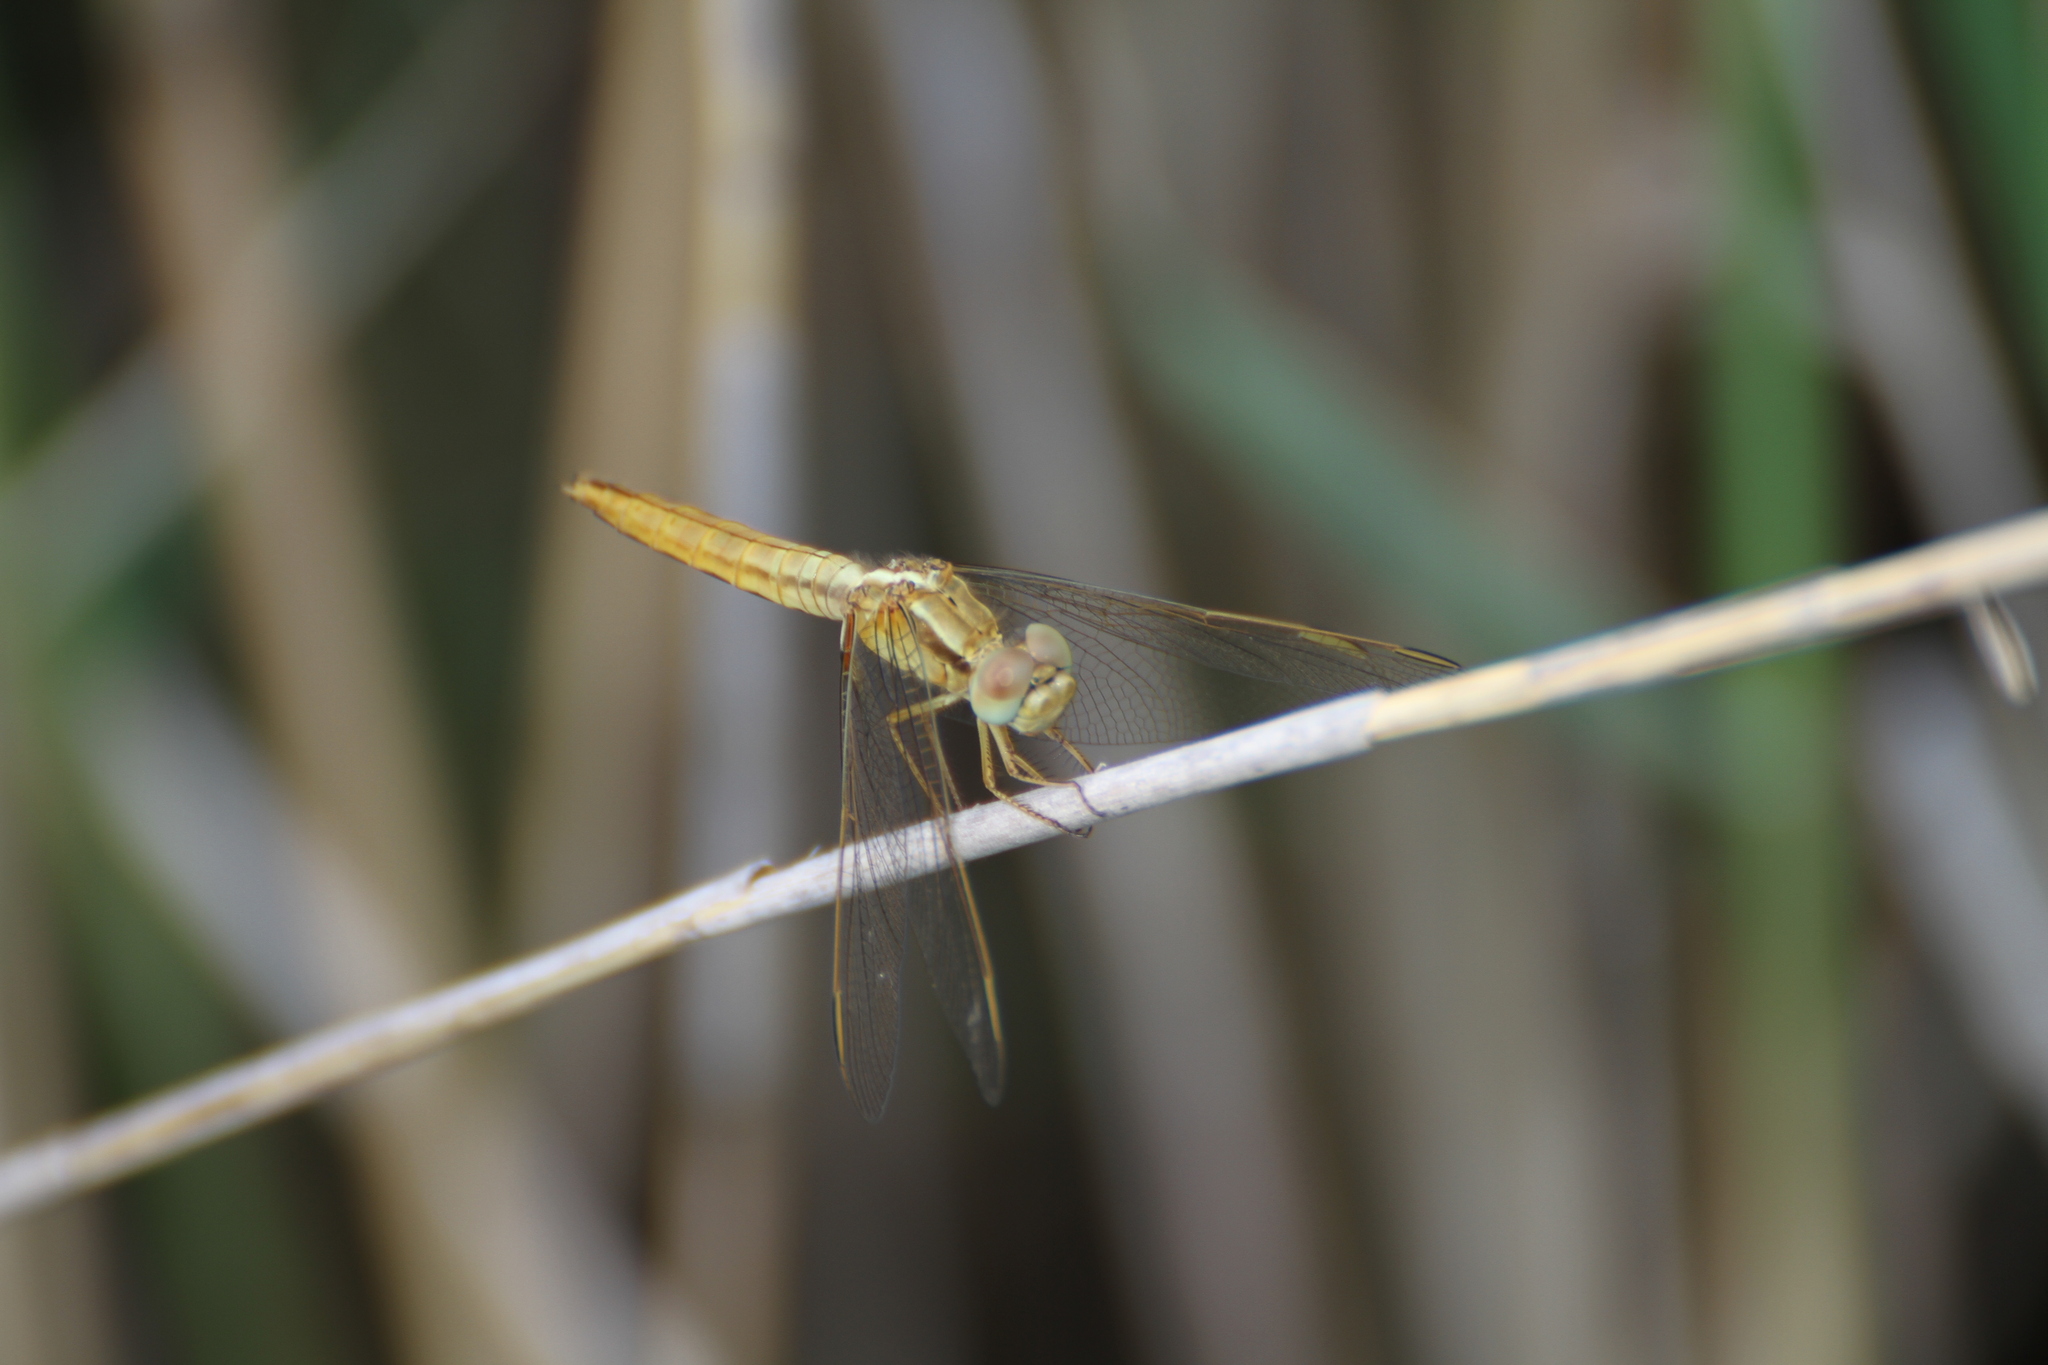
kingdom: Animalia
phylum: Arthropoda
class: Insecta
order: Odonata
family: Libellulidae
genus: Crocothemis
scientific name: Crocothemis erythraea
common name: Scarlet dragonfly
